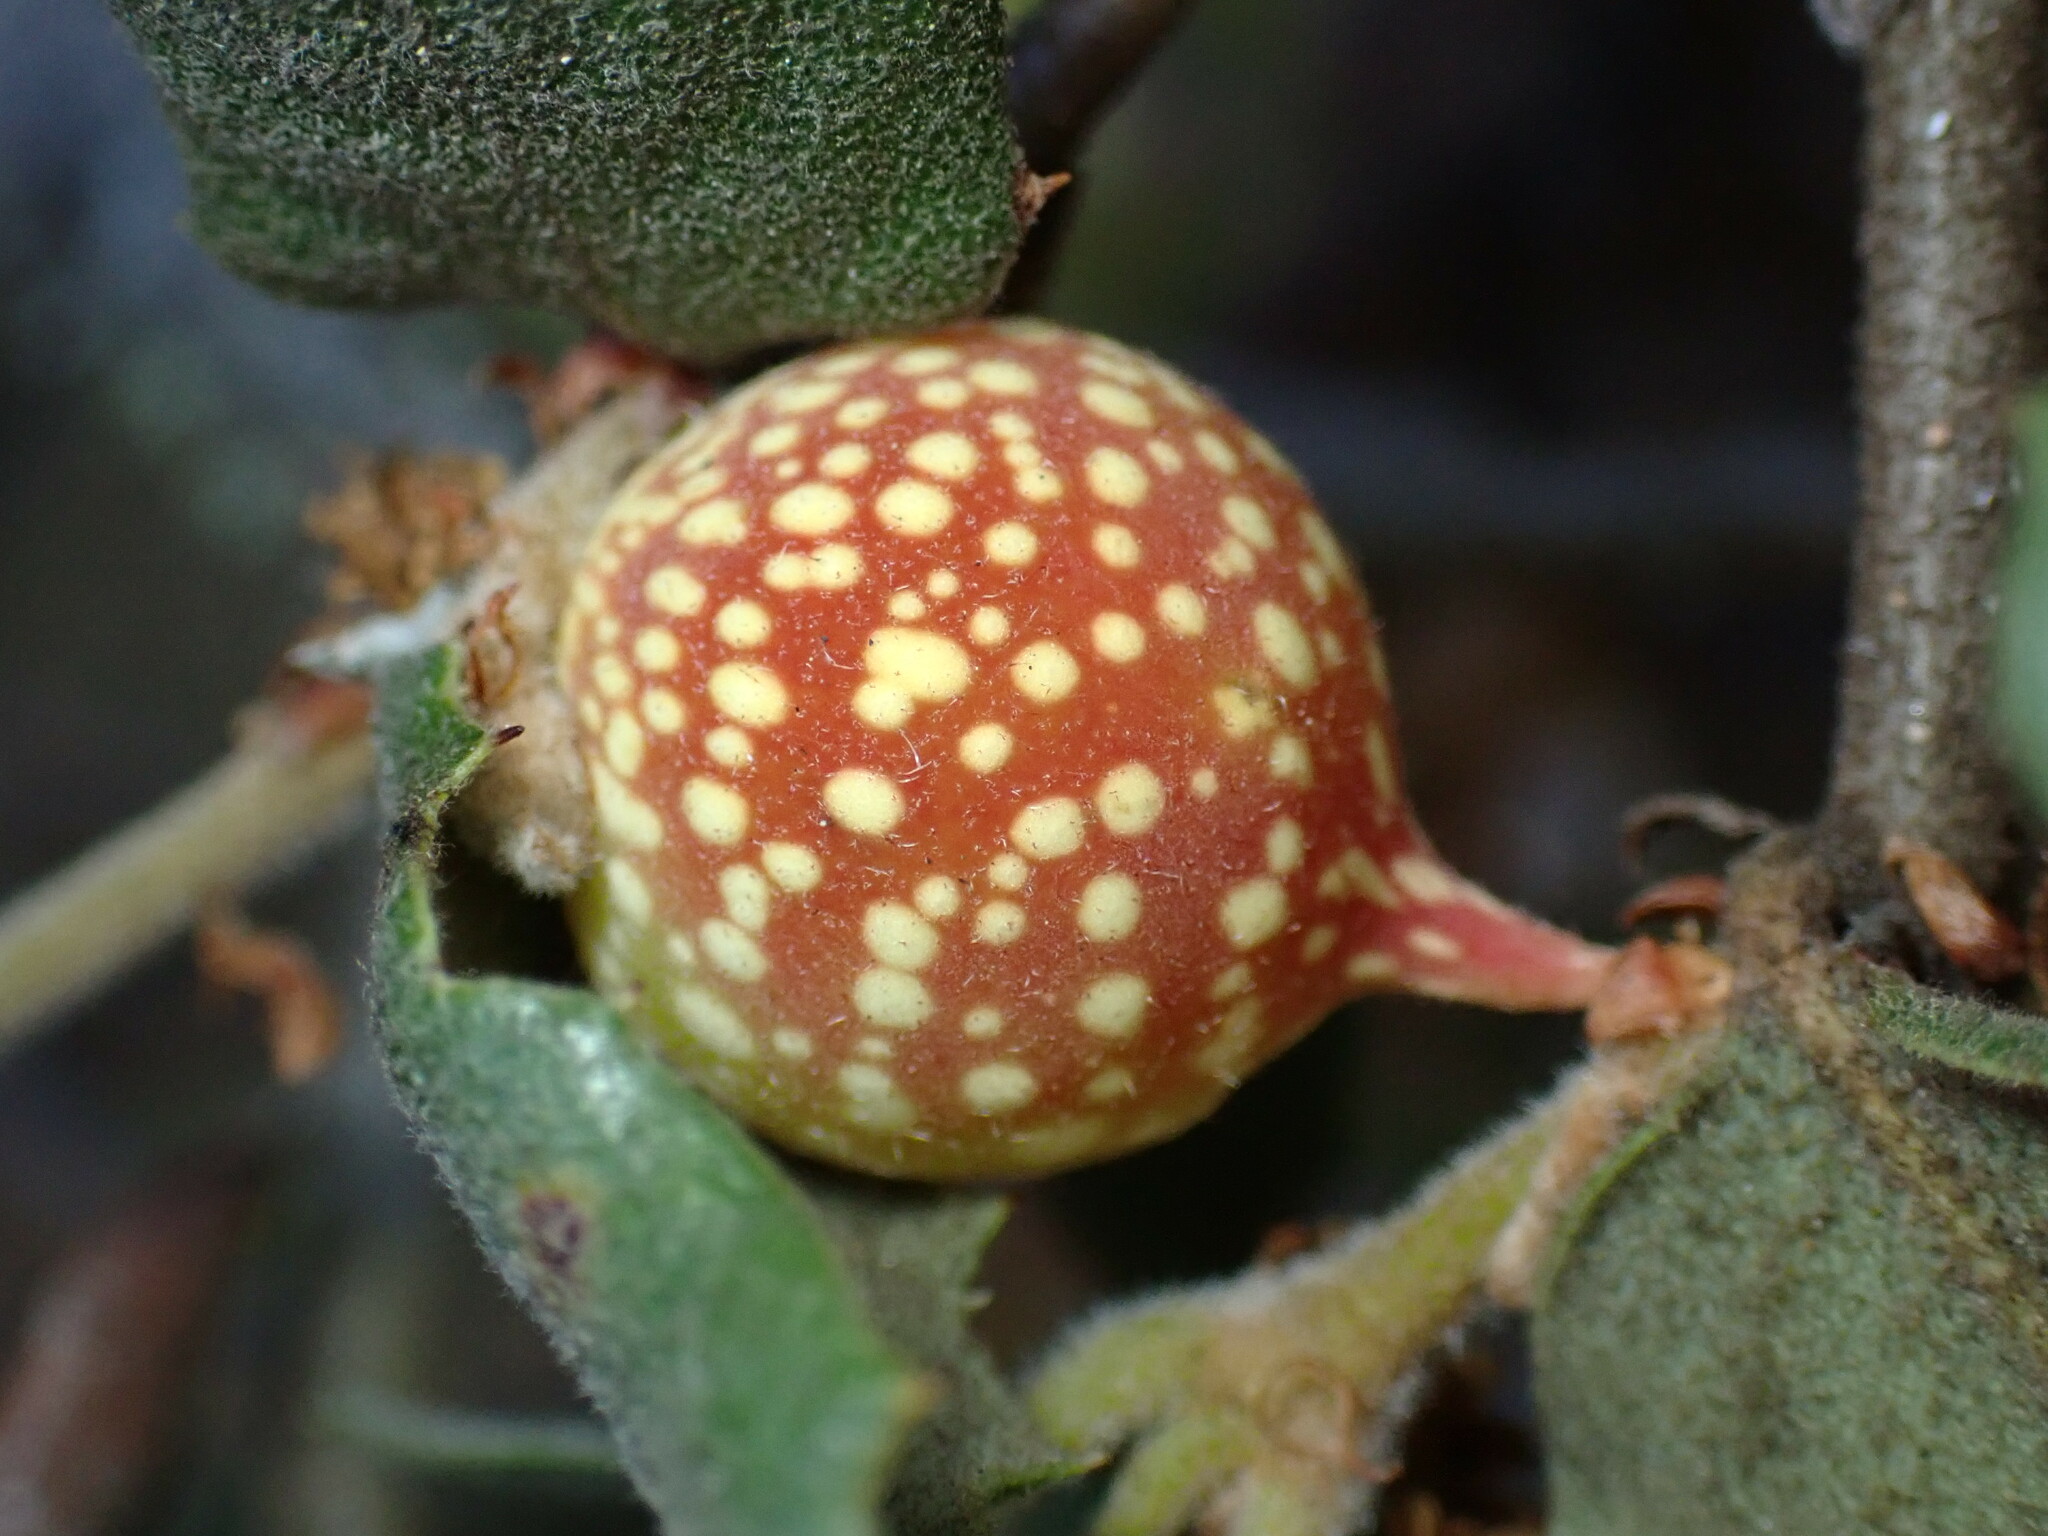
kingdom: Animalia
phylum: Arthropoda
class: Insecta
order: Hymenoptera
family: Cynipidae
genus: Burnettweldia
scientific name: Burnettweldia
